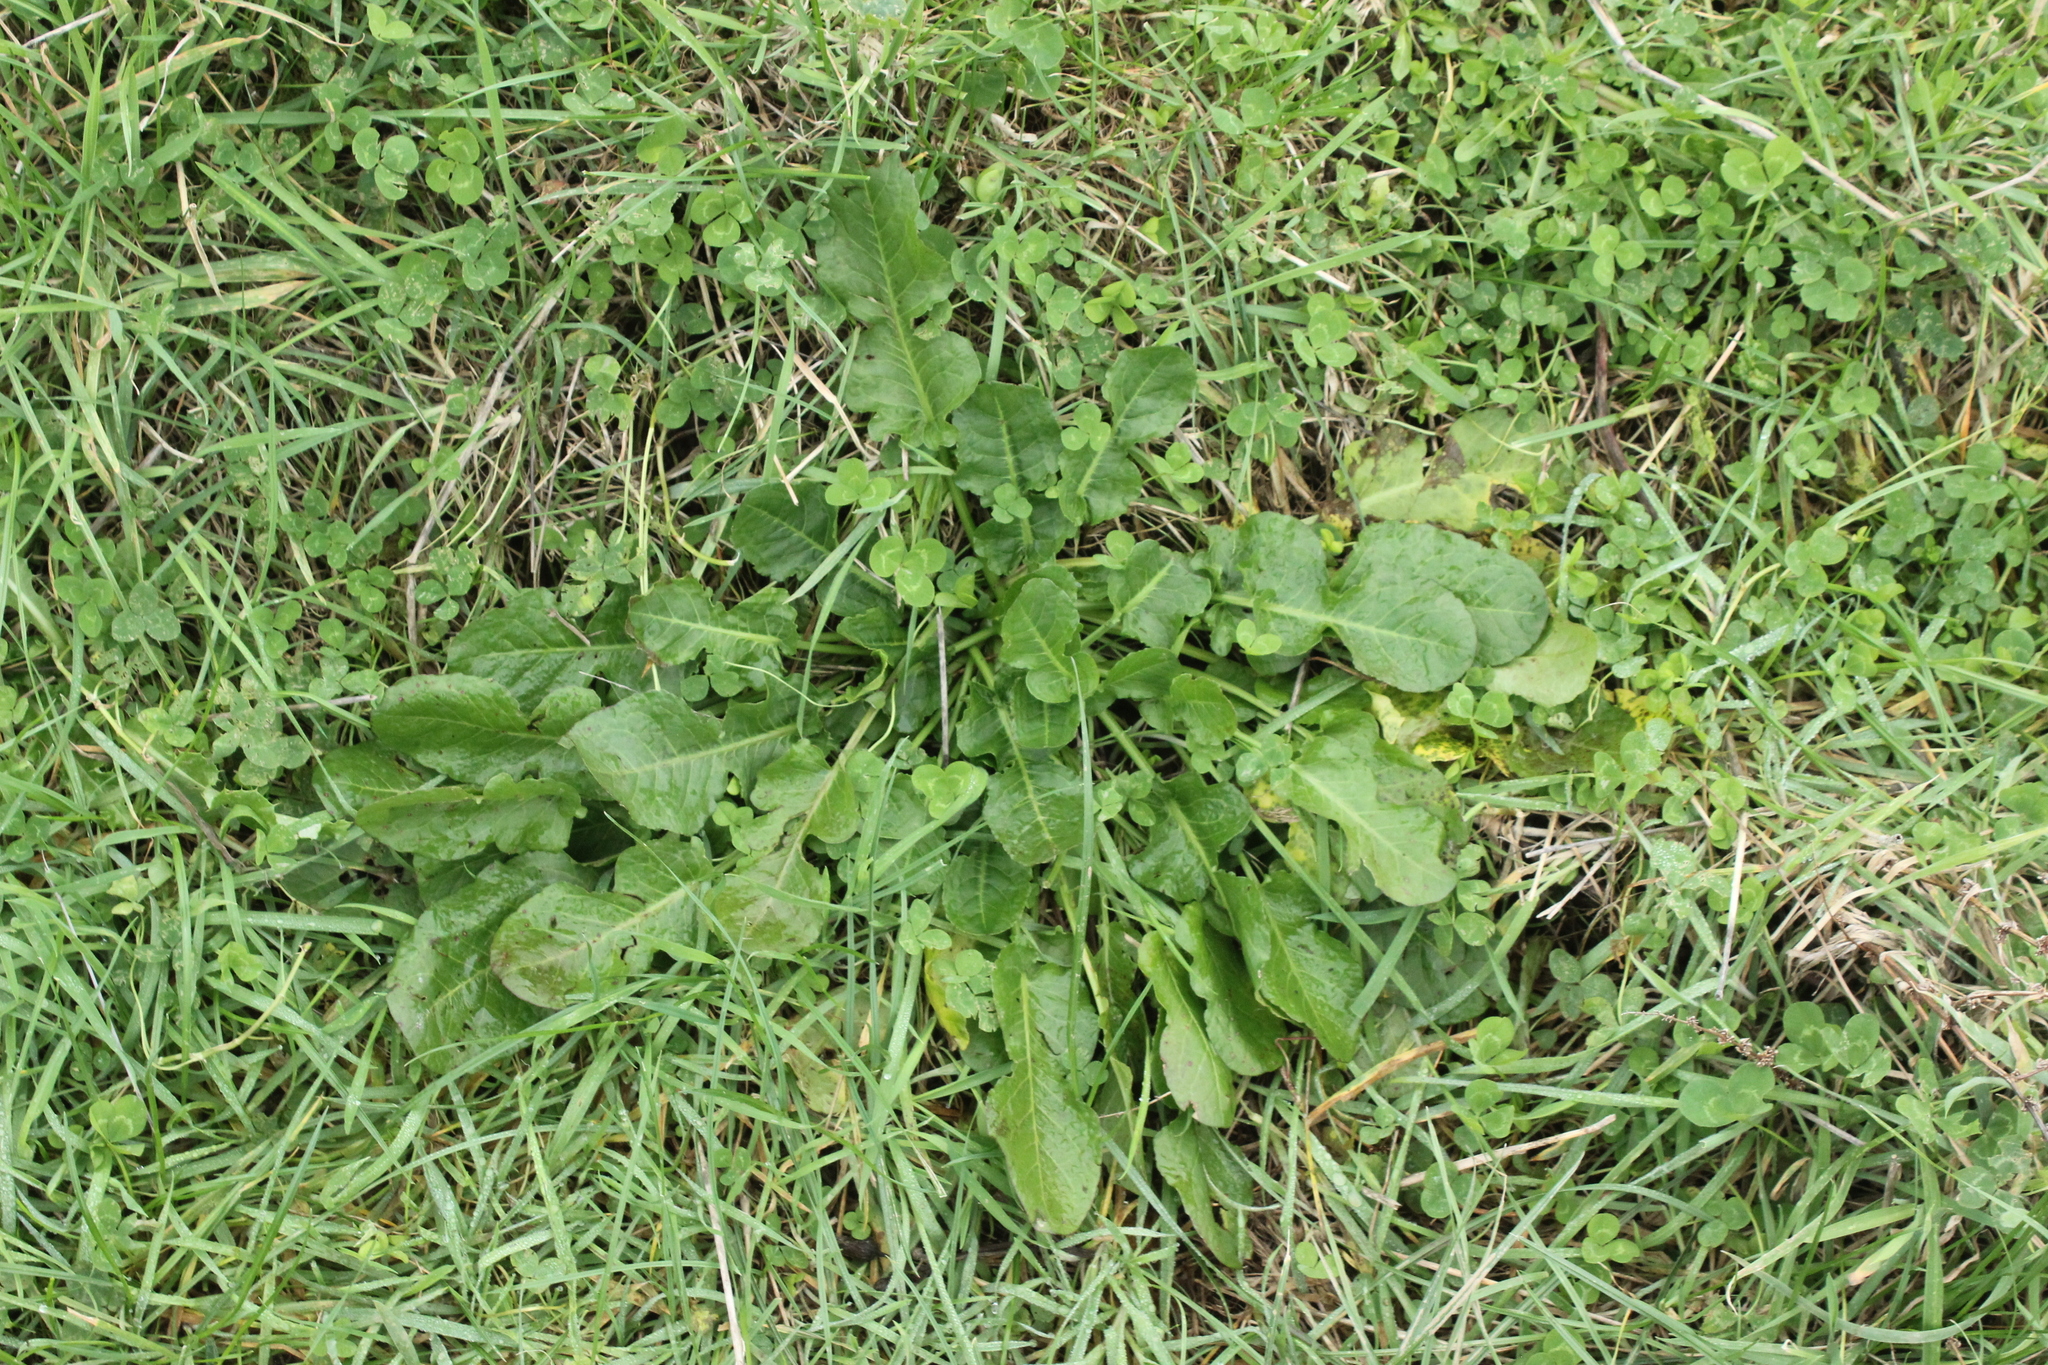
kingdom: Plantae
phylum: Tracheophyta
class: Magnoliopsida
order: Caryophyllales
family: Polygonaceae
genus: Rumex
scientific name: Rumex pulcher
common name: Fiddle dock
